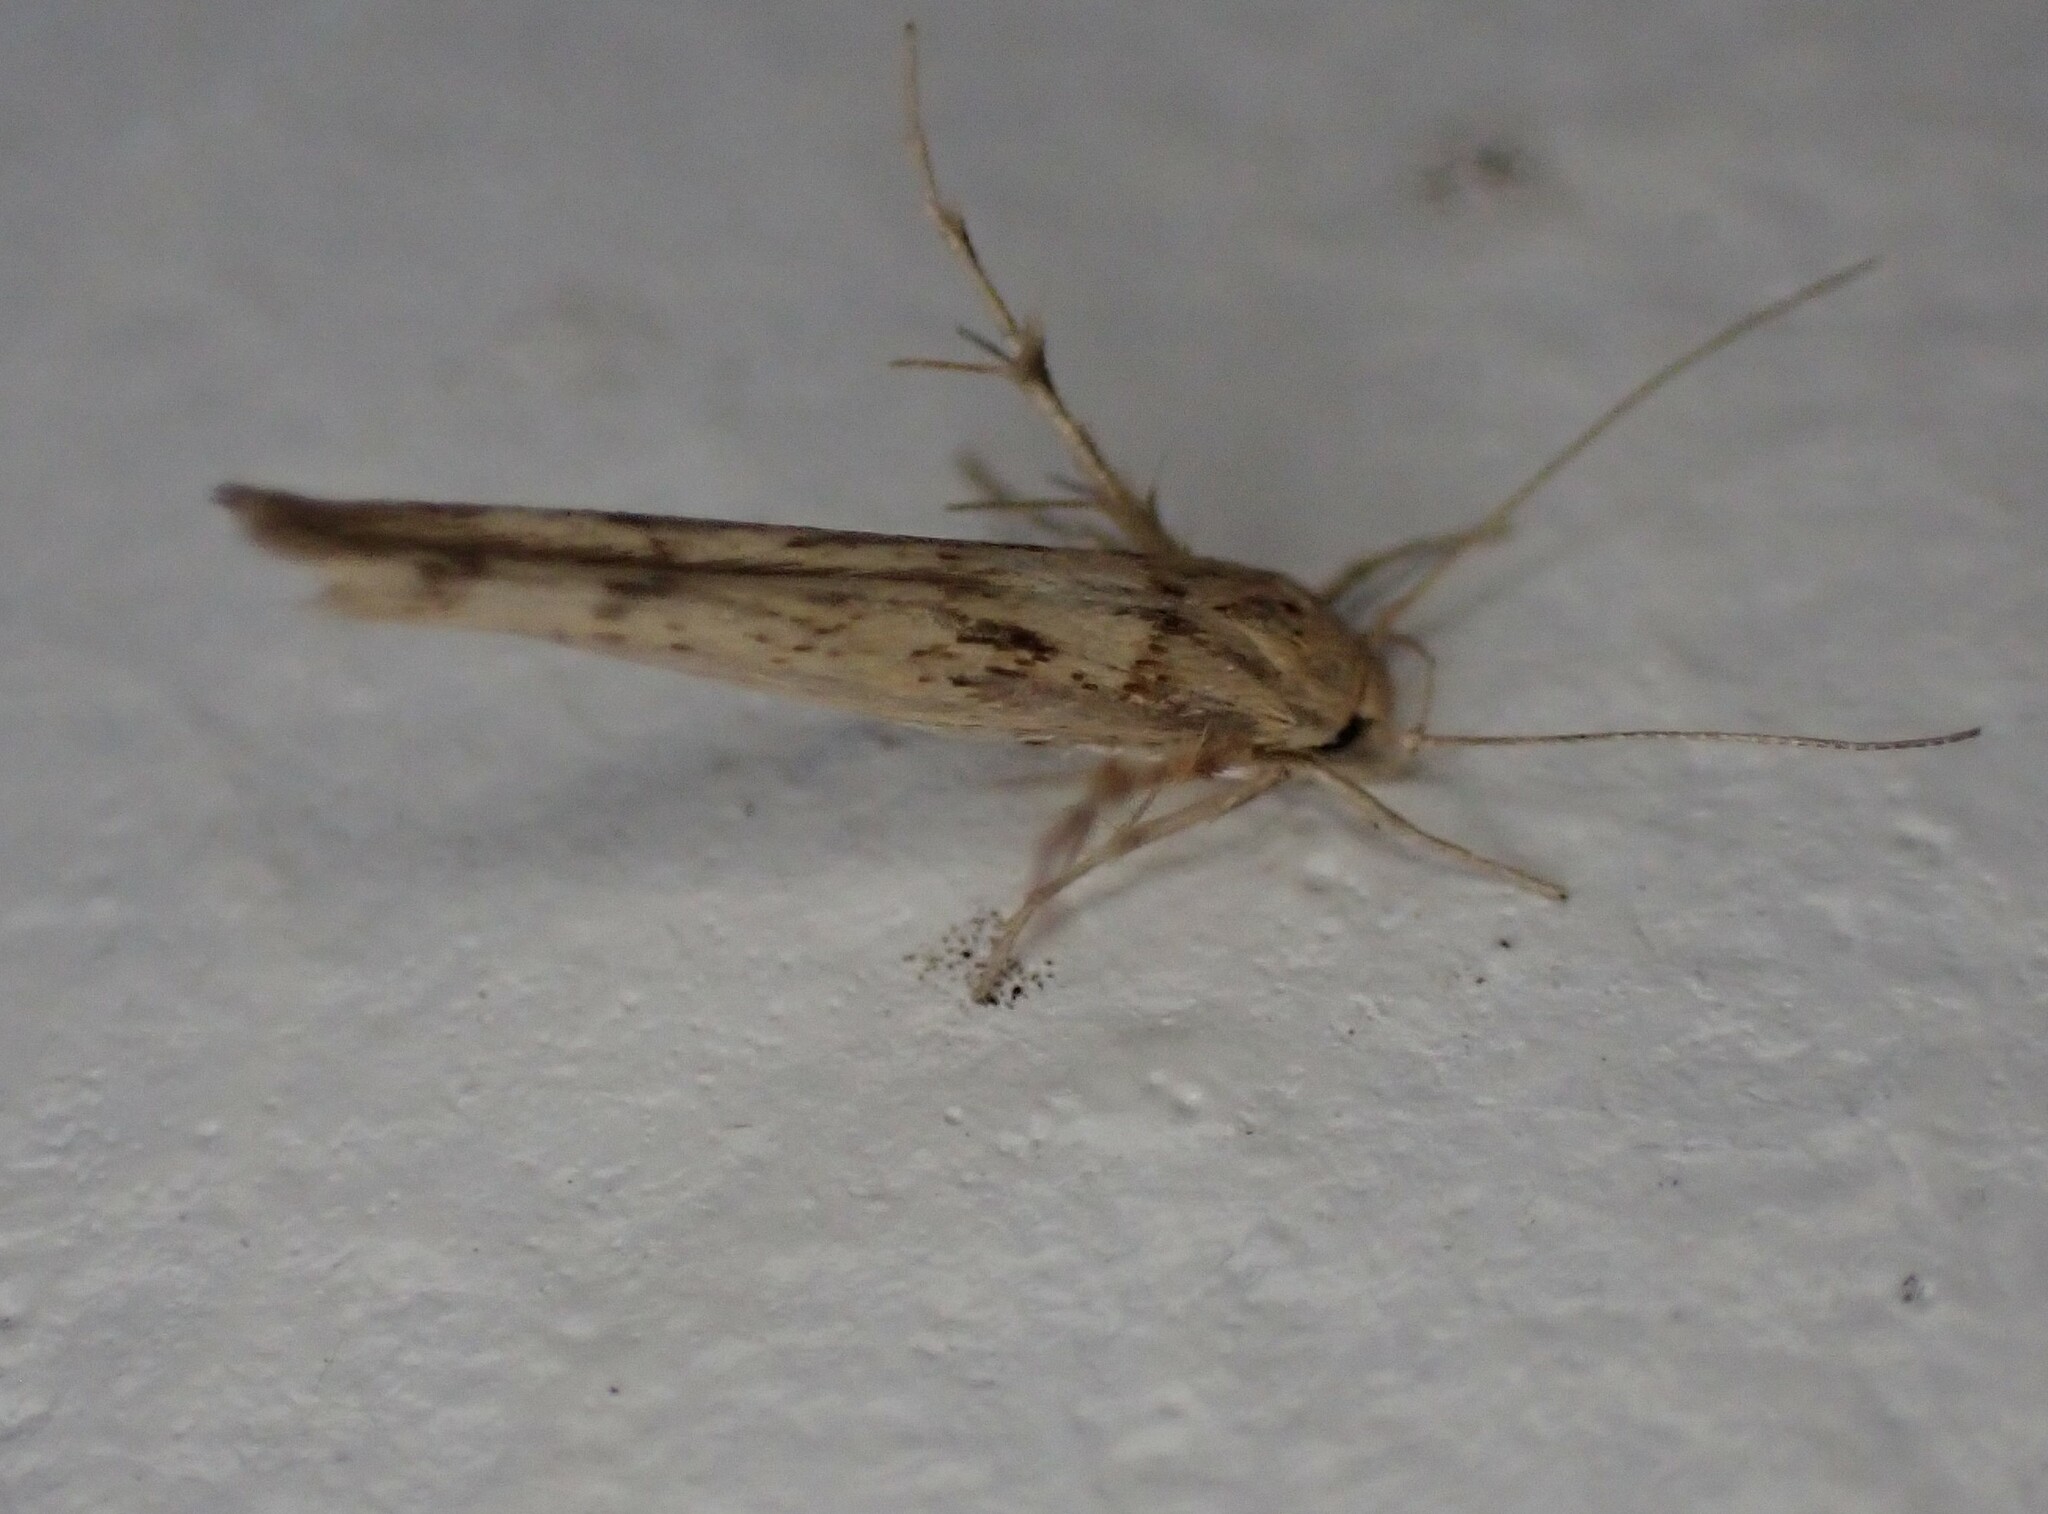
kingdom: Animalia
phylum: Arthropoda
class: Insecta
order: Lepidoptera
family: Stathmopodidae
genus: Stathmopoda
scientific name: Stathmopoda aposema
